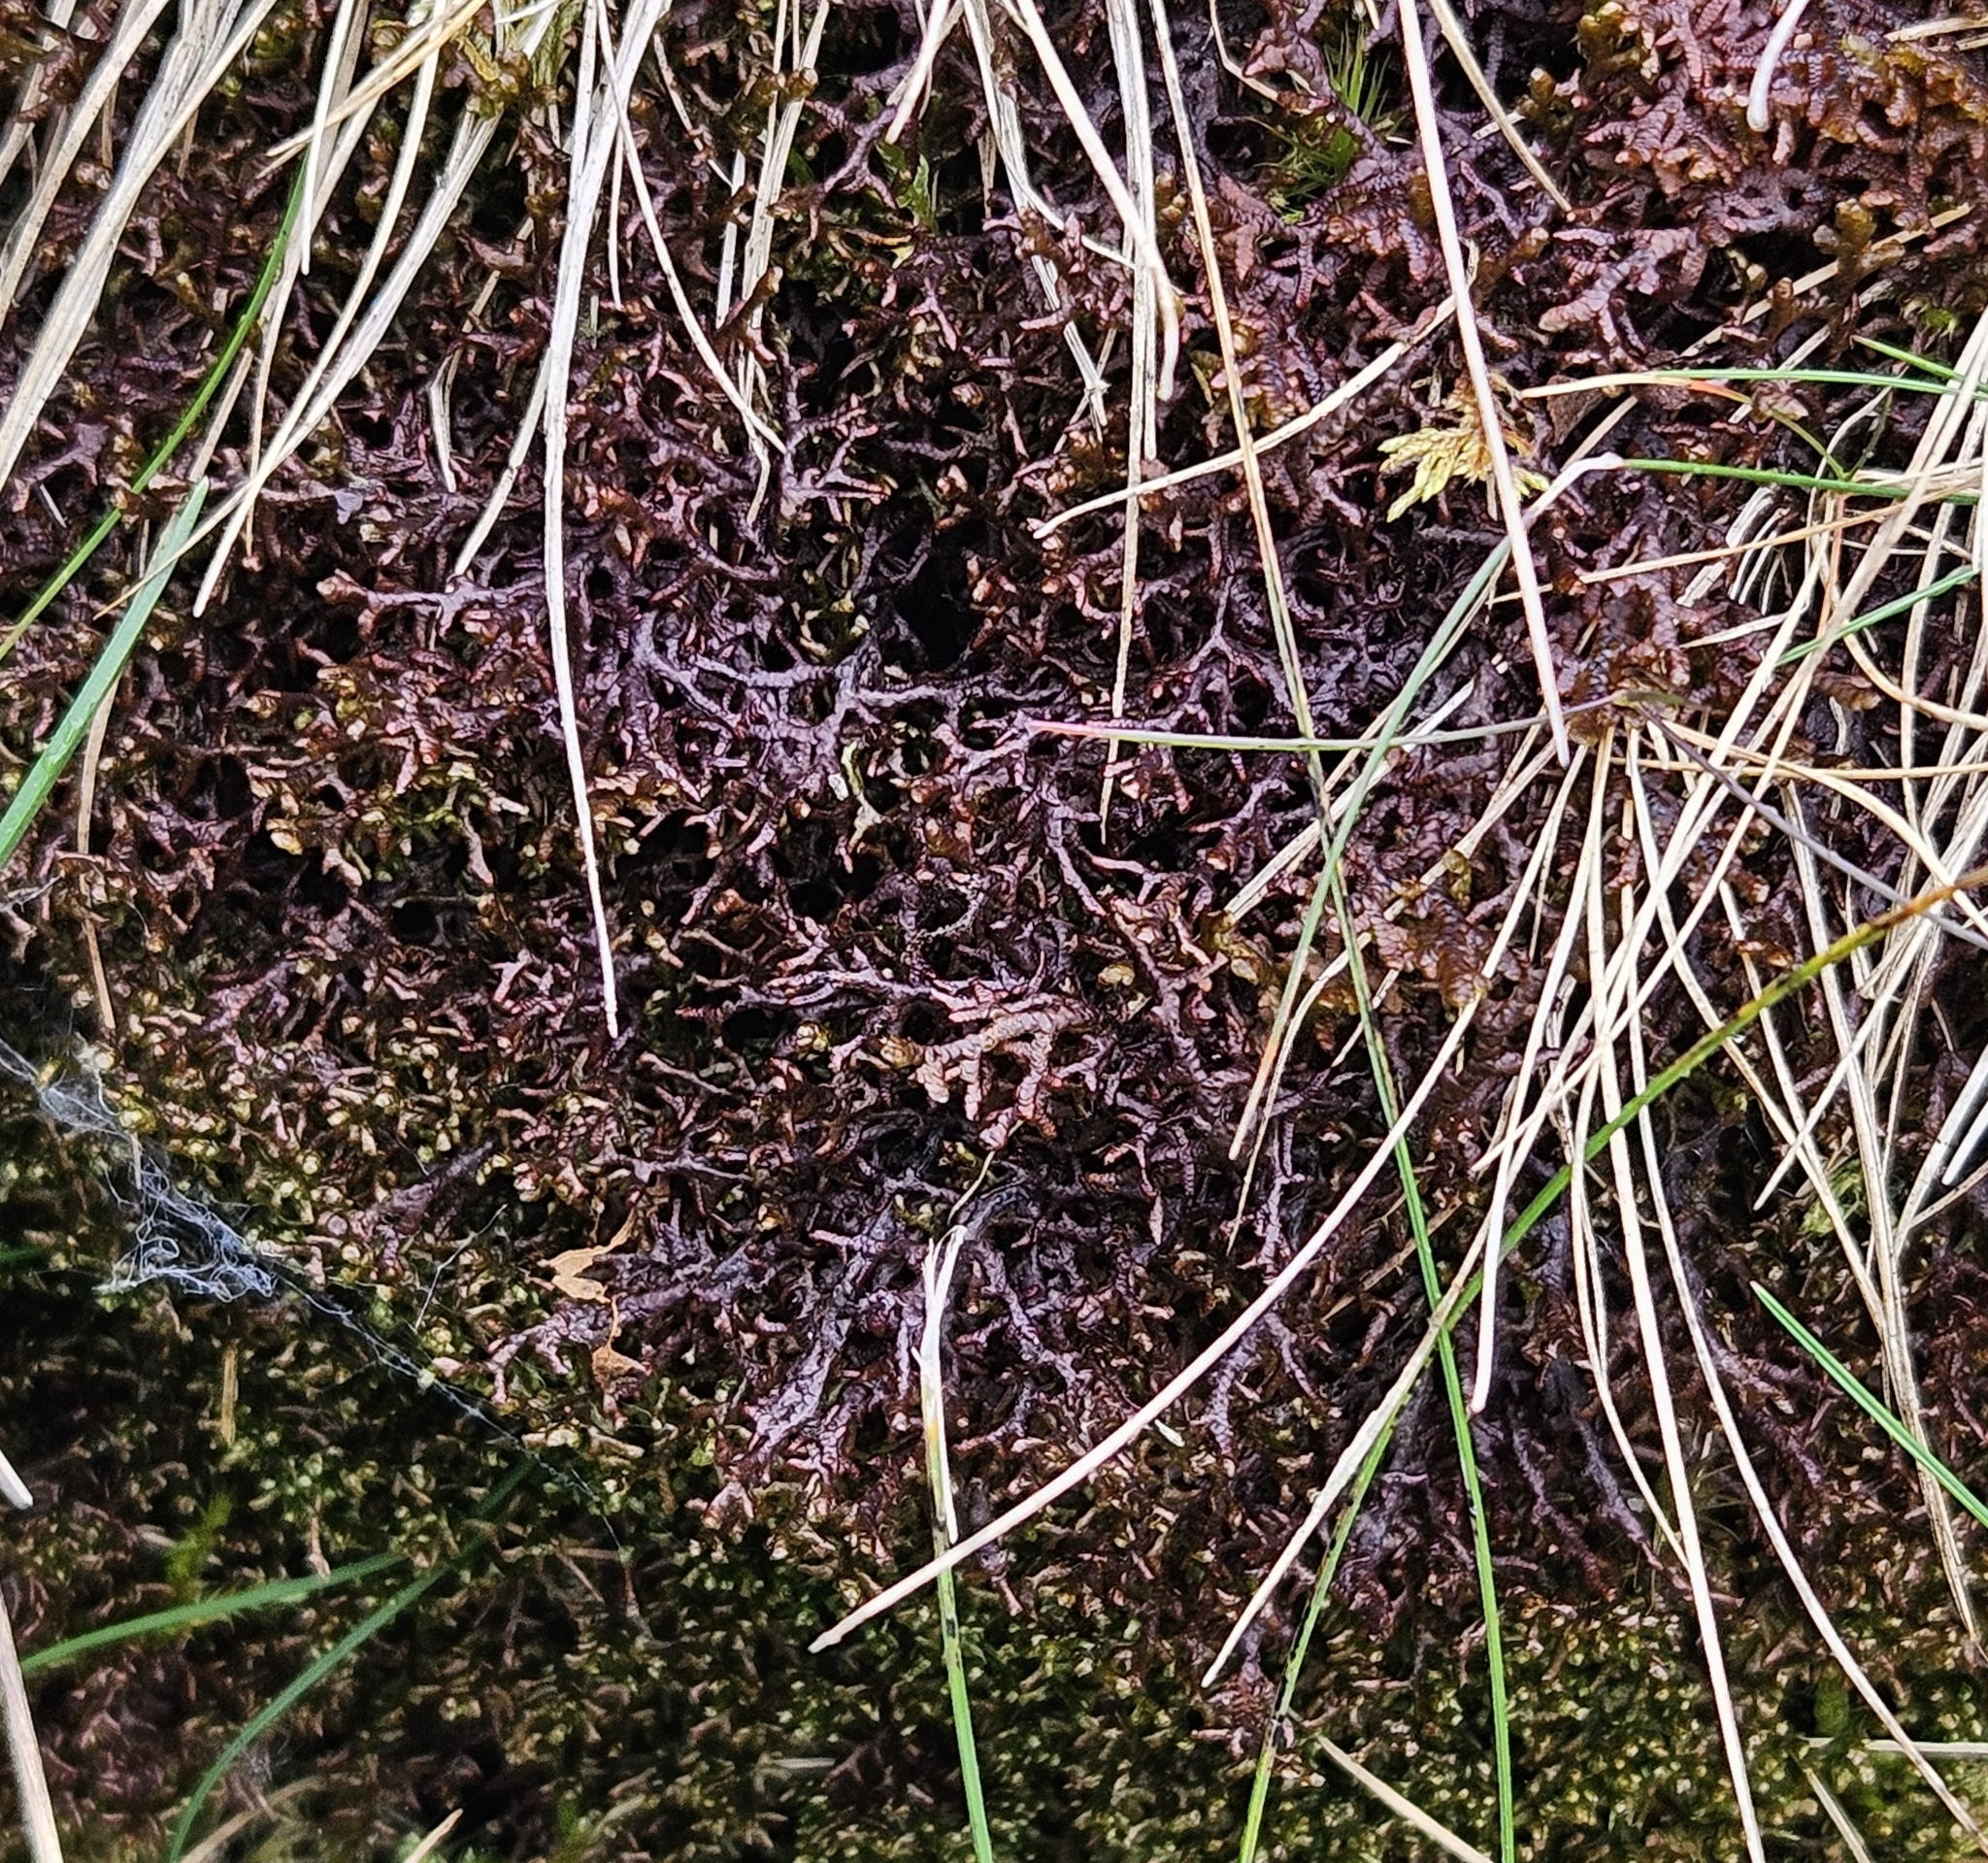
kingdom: Plantae
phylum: Marchantiophyta
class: Jungermanniopsida
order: Porellales
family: Frullaniaceae
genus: Frullania
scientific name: Frullania tamarisci
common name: Tamarisk scalewort
